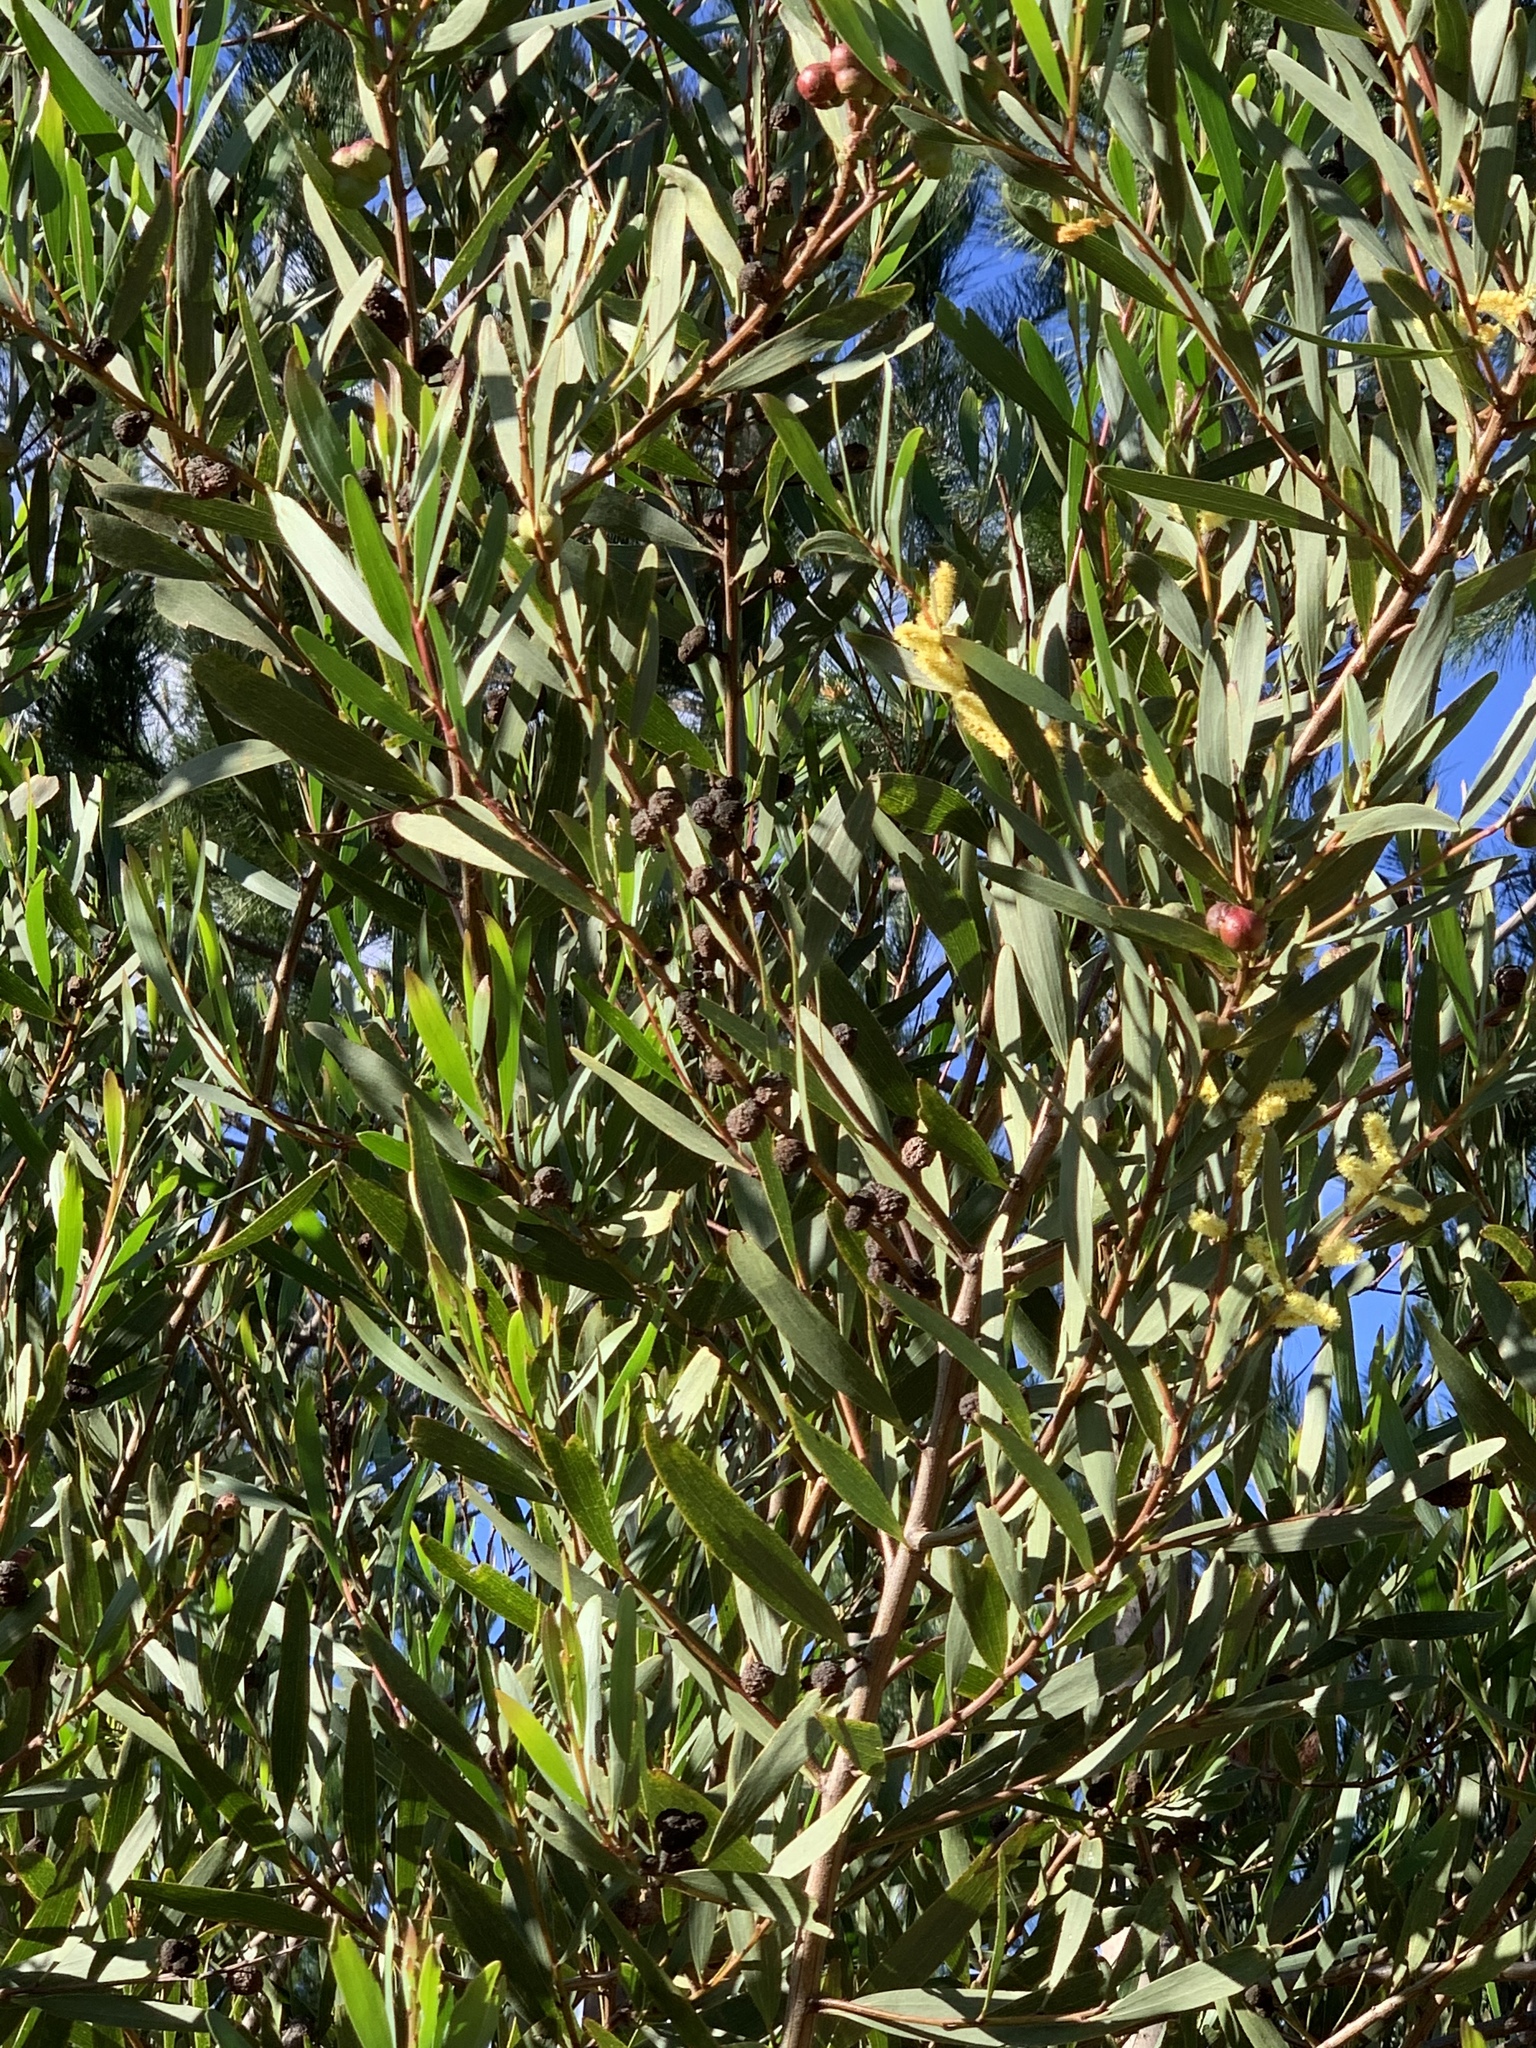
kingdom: Plantae
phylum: Tracheophyta
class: Magnoliopsida
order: Fabales
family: Fabaceae
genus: Acacia
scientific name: Acacia longifolia
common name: Sydney golden wattle
